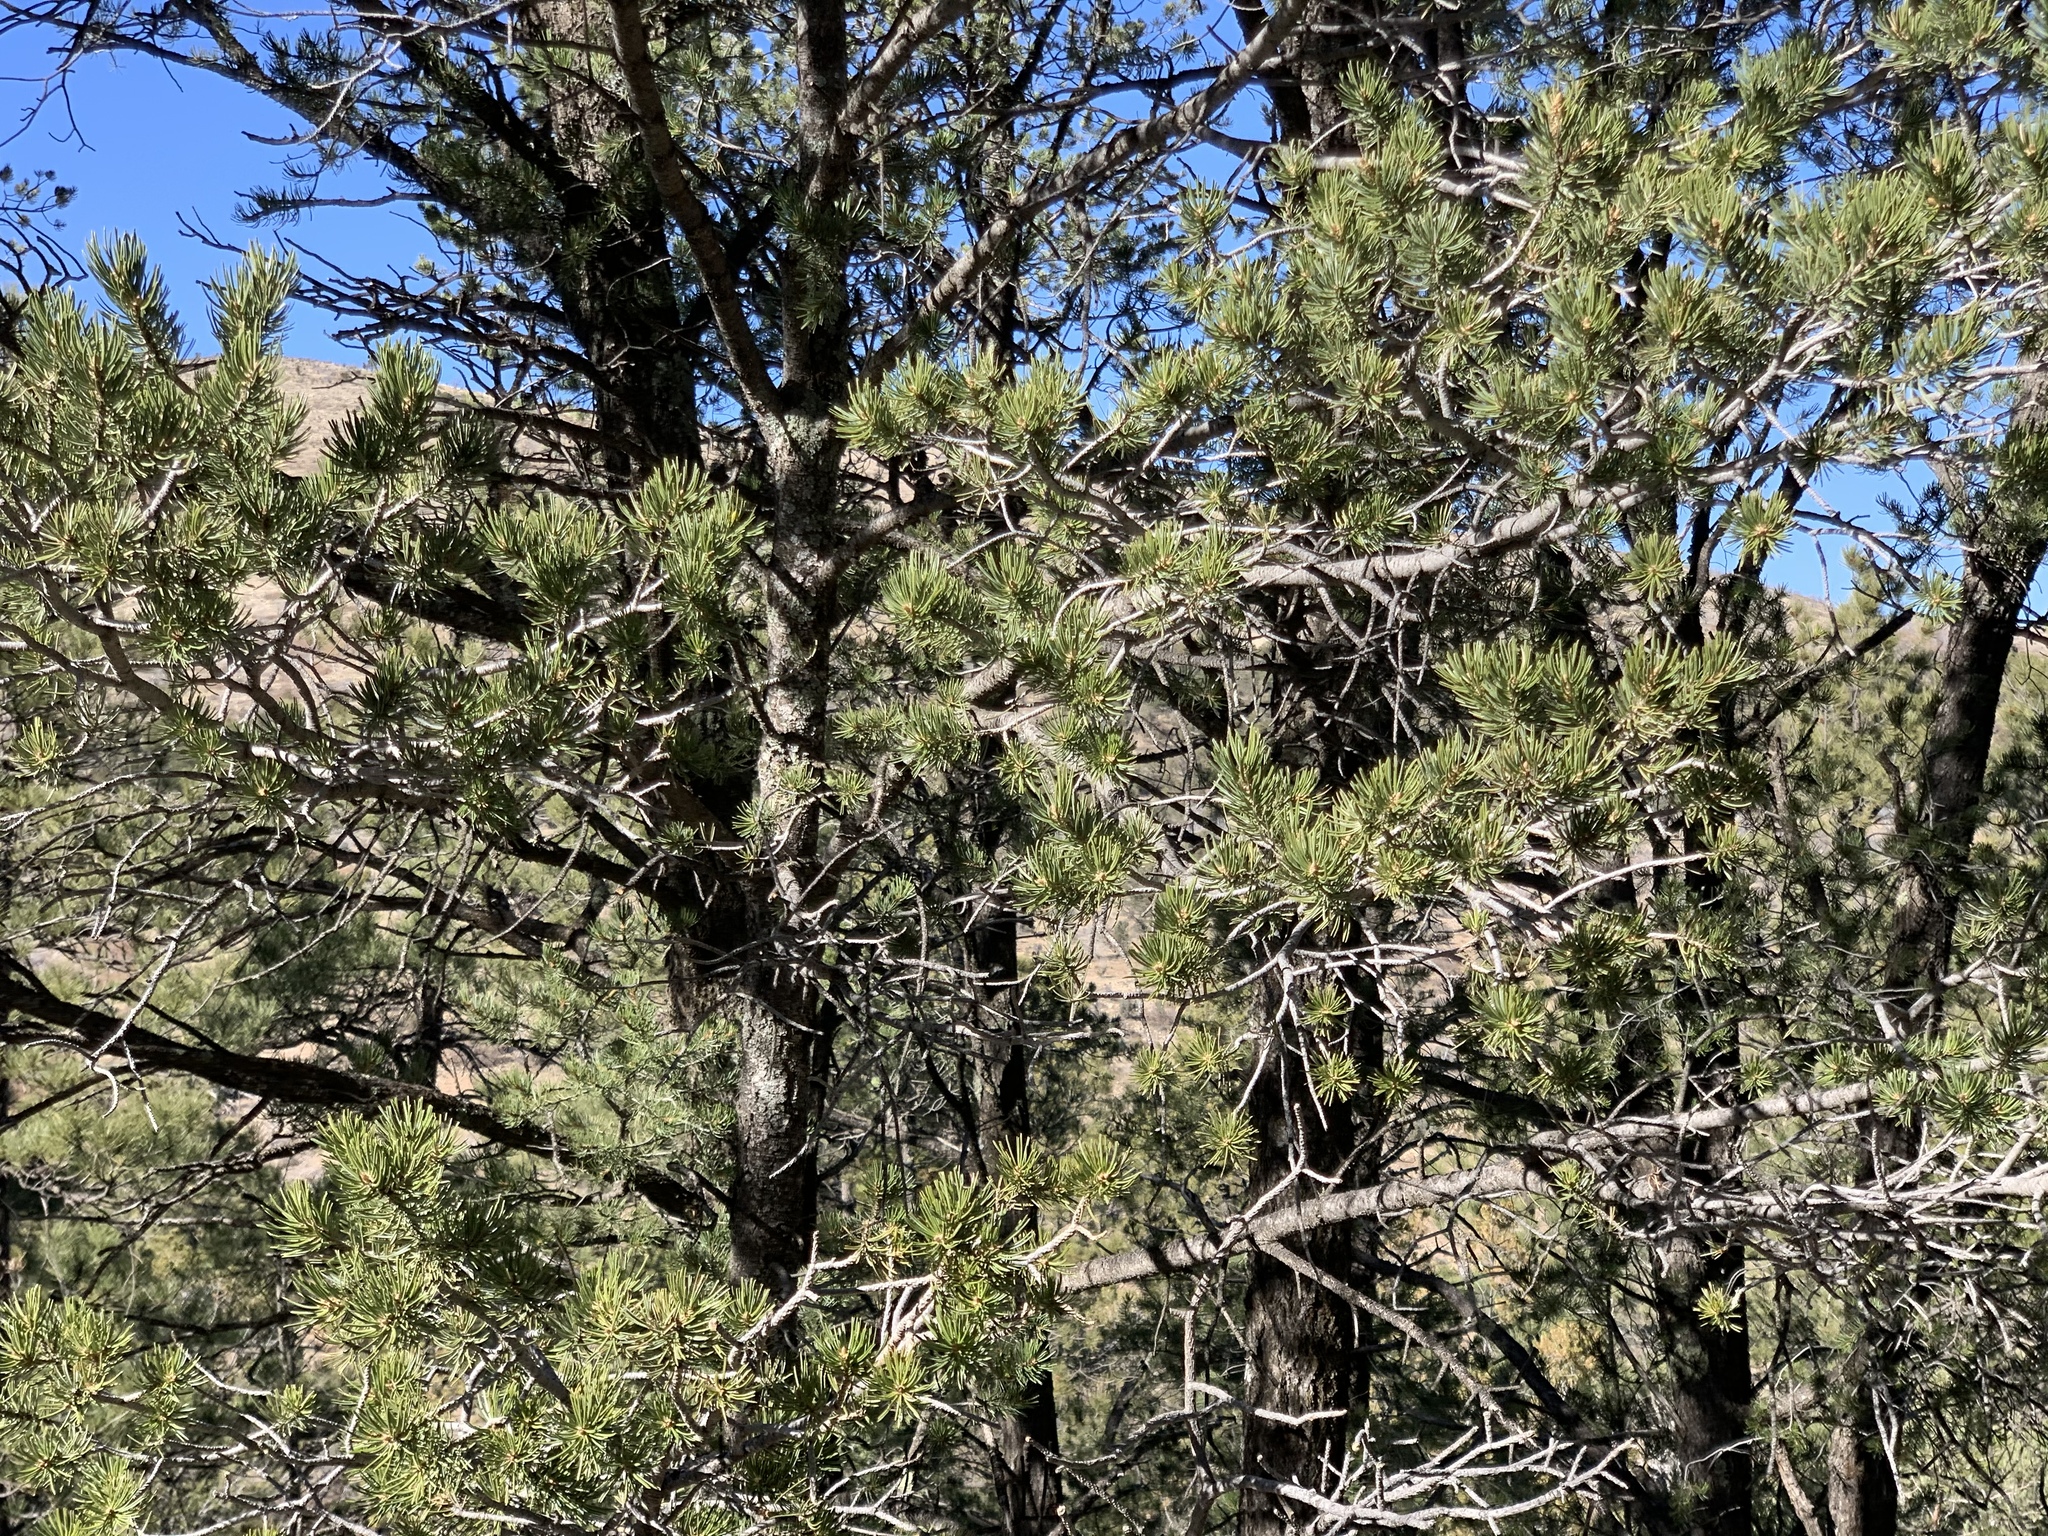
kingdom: Plantae
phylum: Tracheophyta
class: Pinopsida
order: Pinales
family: Pinaceae
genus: Pinus
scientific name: Pinus edulis
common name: Colorado pinyon
